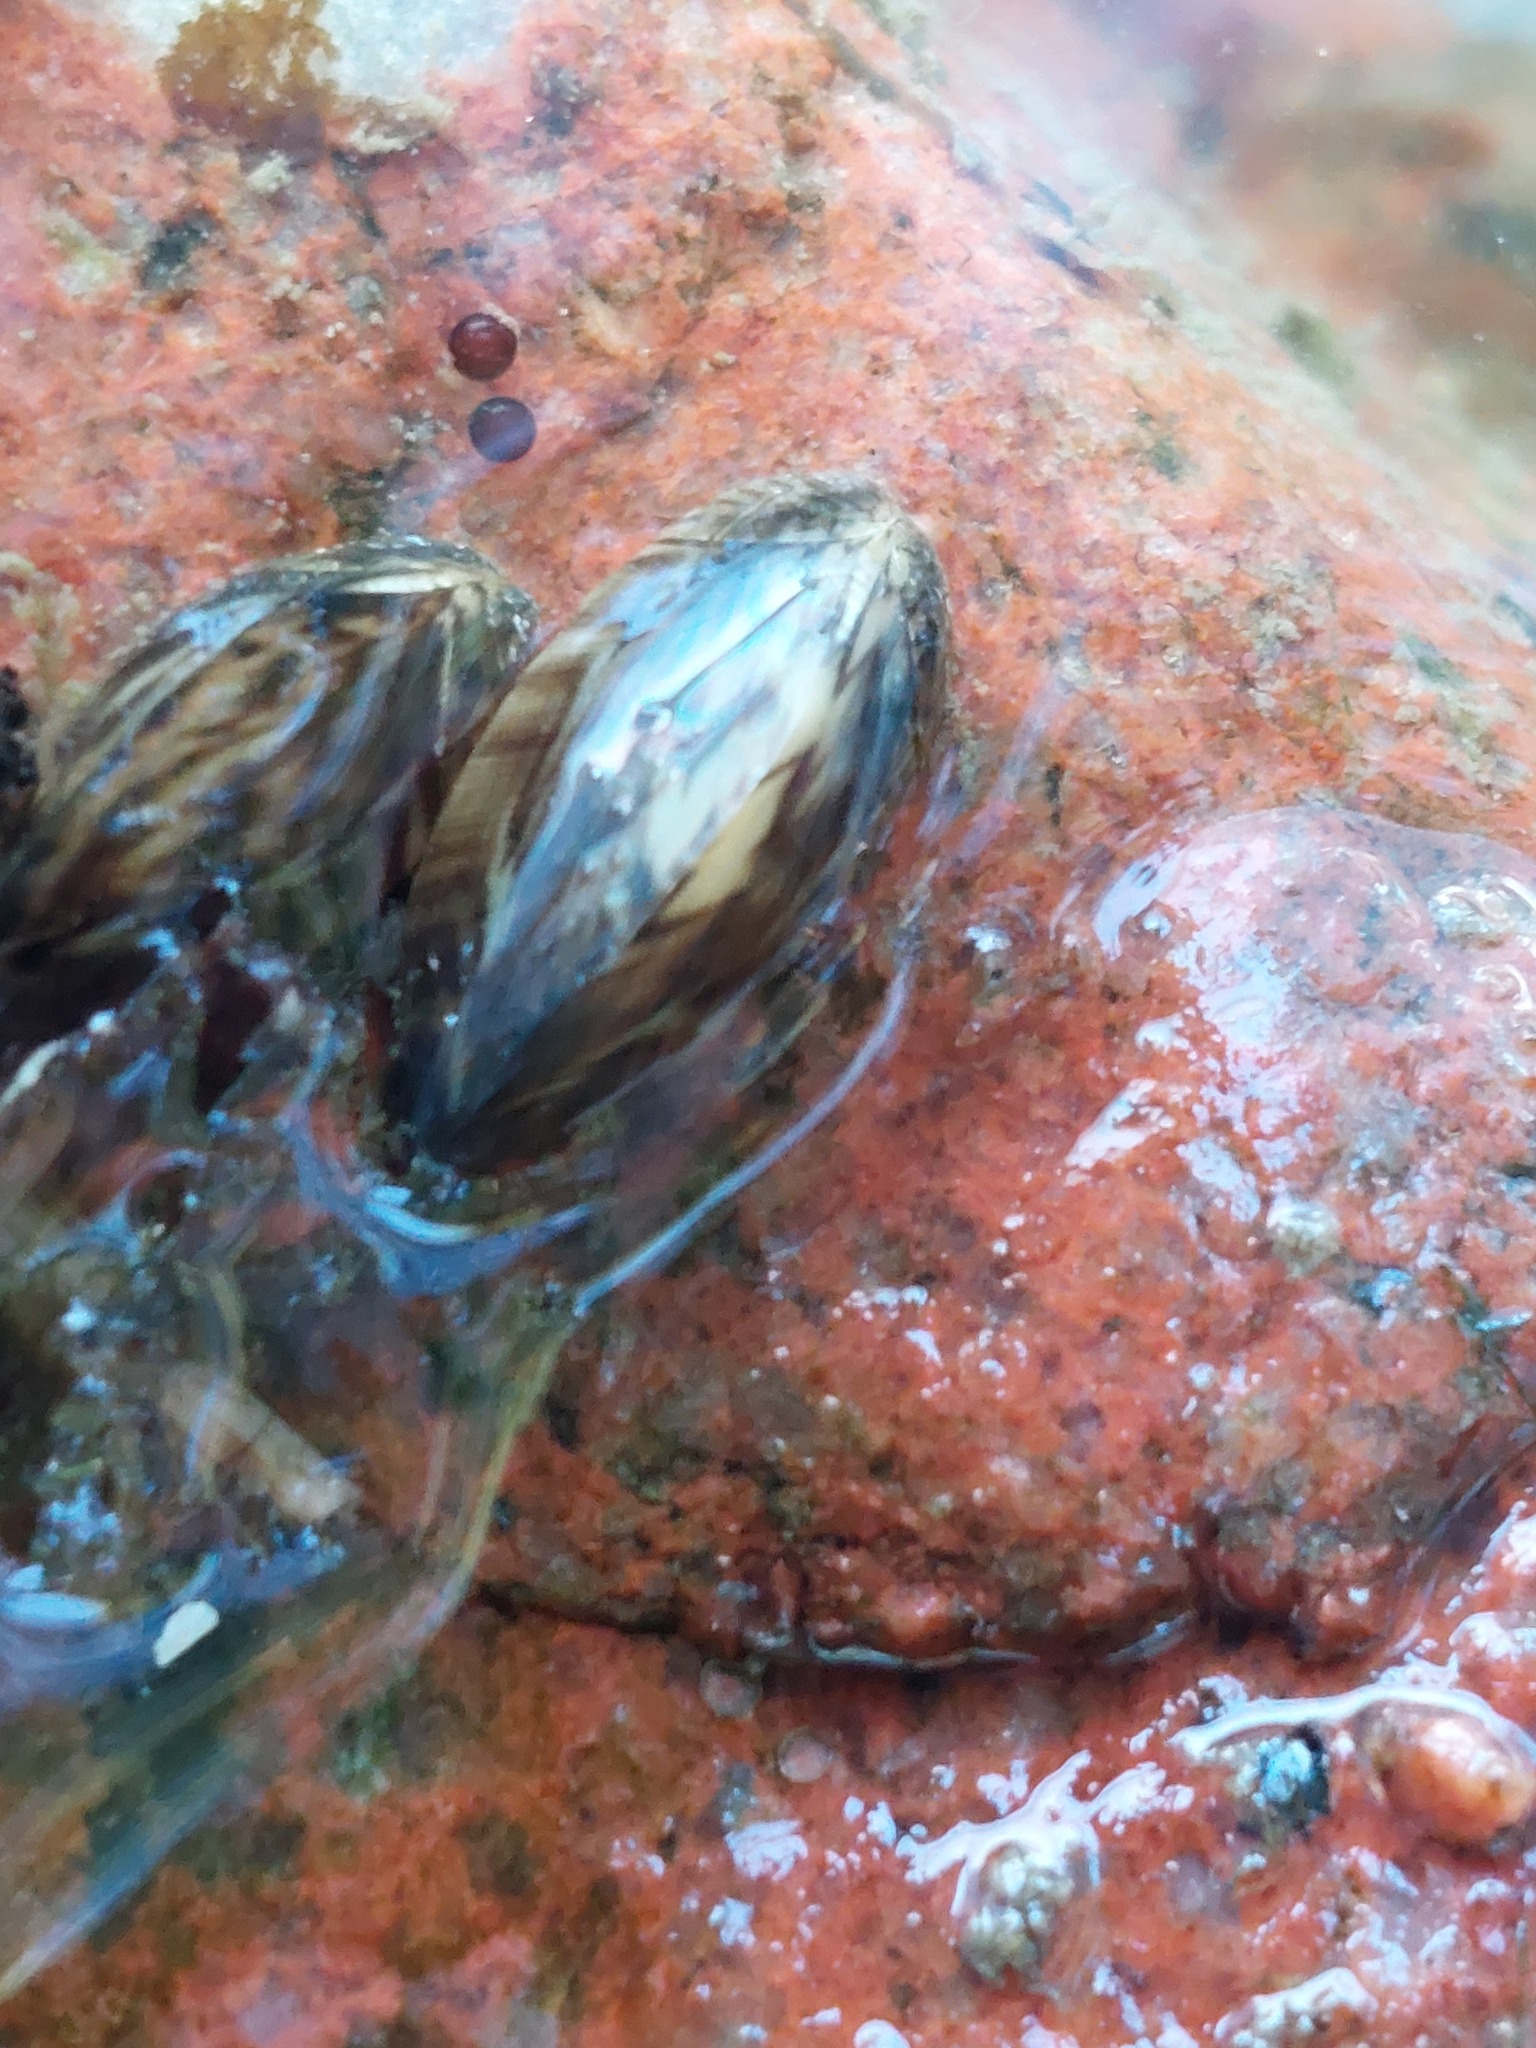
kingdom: Animalia
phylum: Mollusca
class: Bivalvia
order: Myida
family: Dreissenidae
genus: Dreissena
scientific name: Dreissena polymorpha
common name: Zebra mussel
